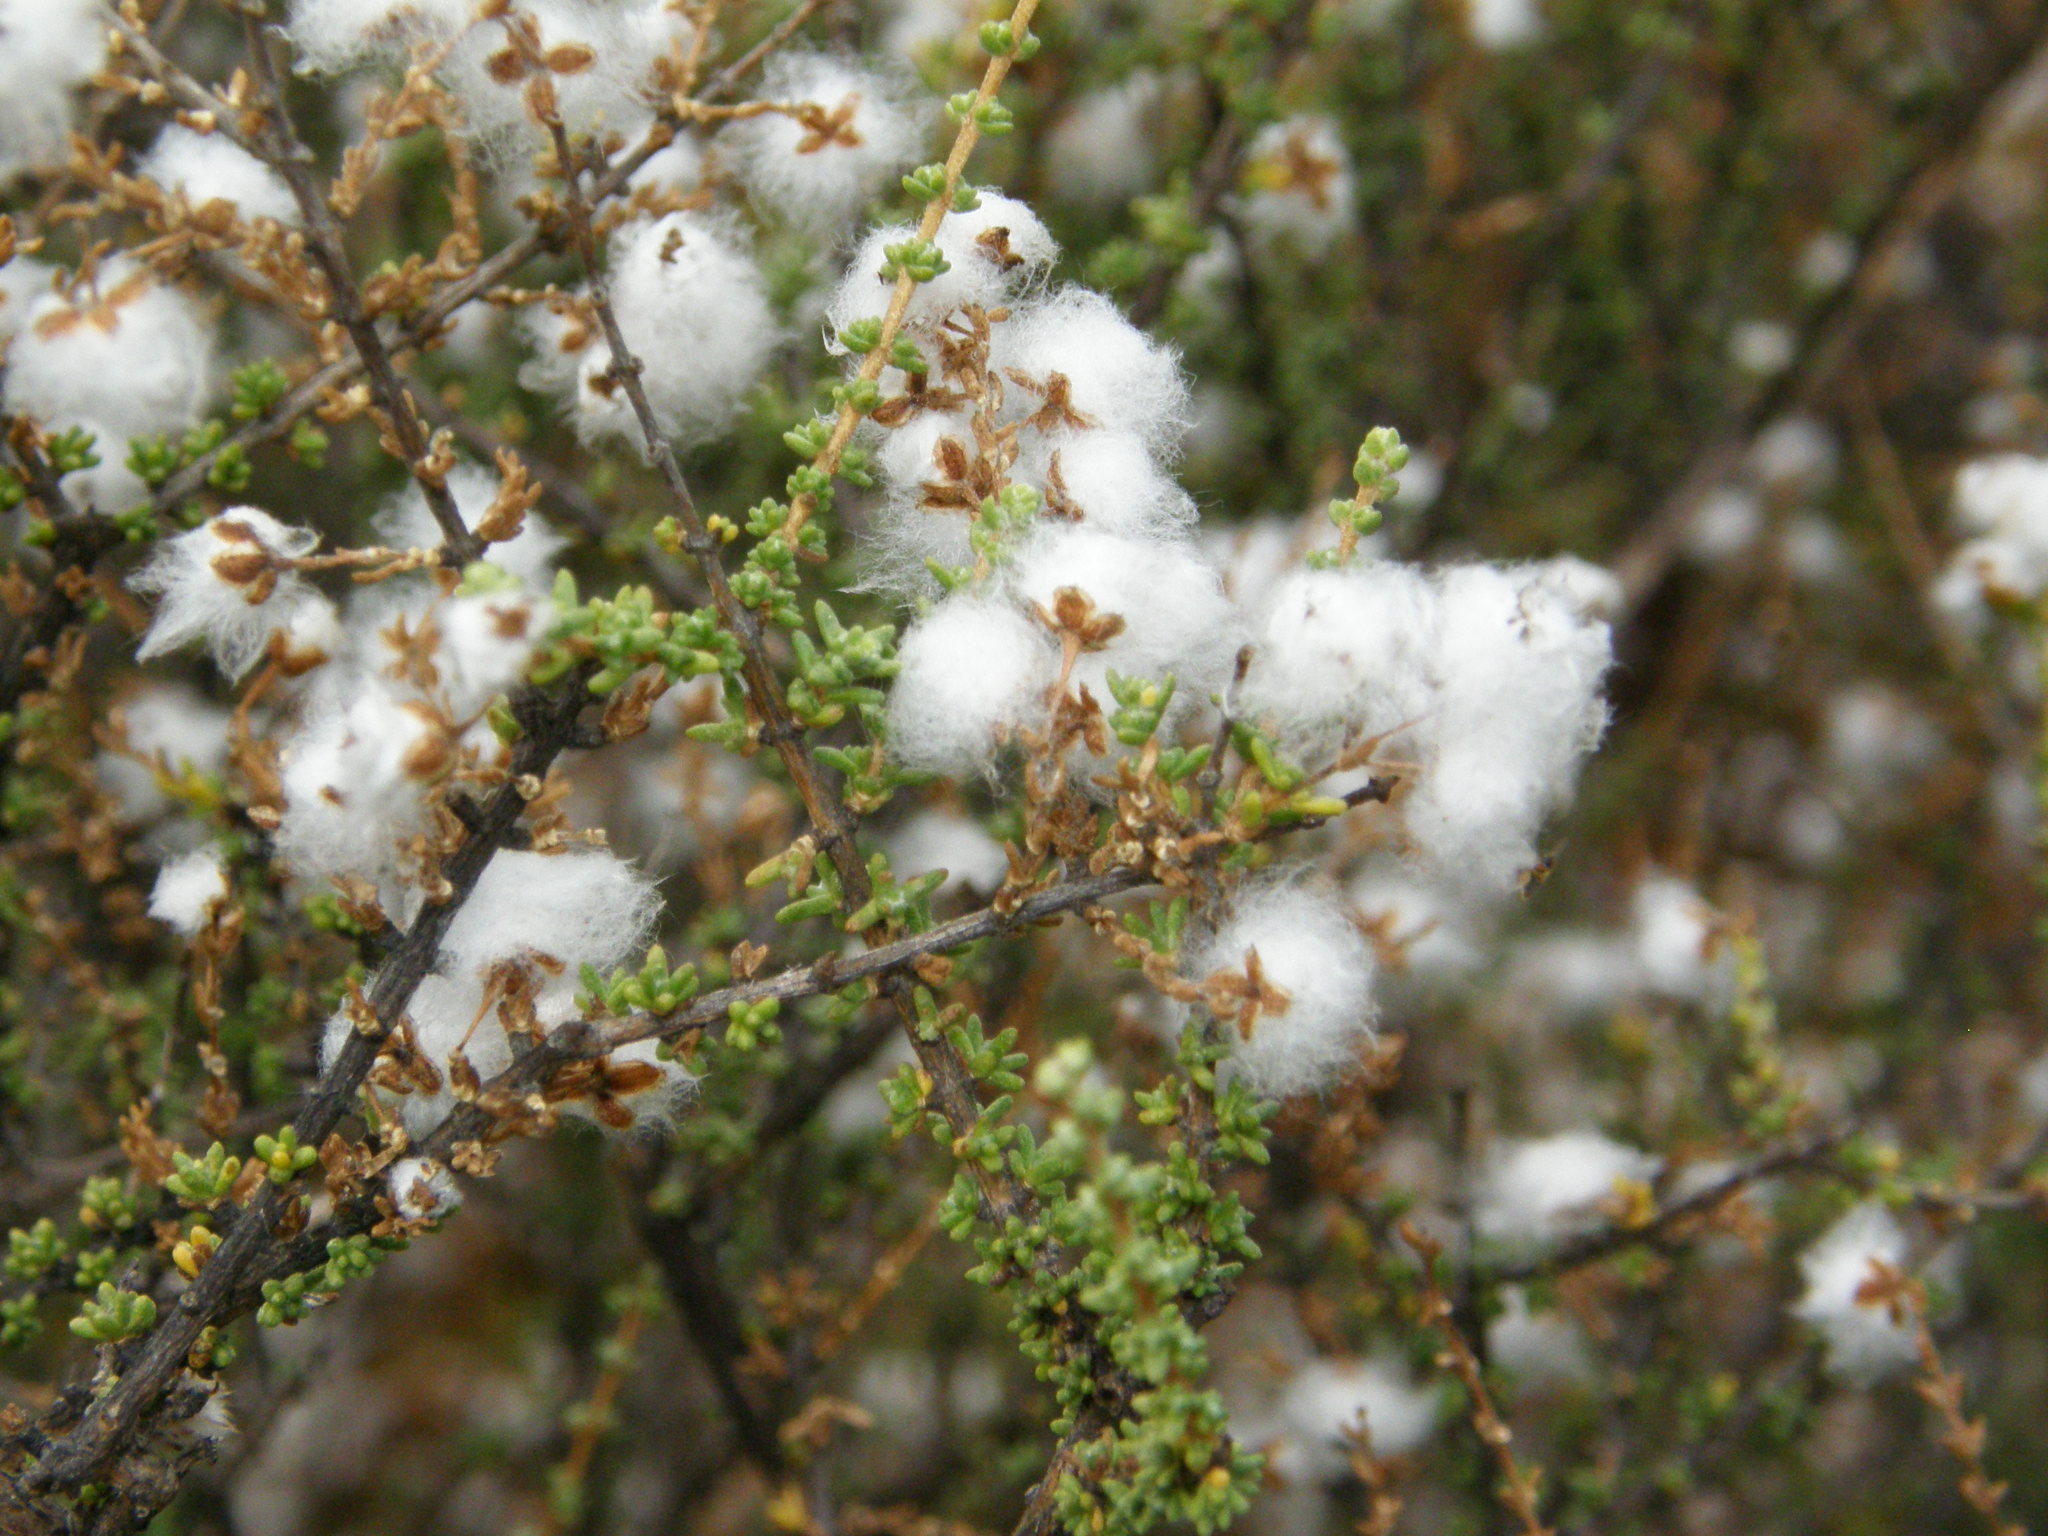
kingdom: Plantae
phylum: Tracheophyta
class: Magnoliopsida
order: Asterales
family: Asteraceae
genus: Eriocephalus
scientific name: Eriocephalus ericoides
